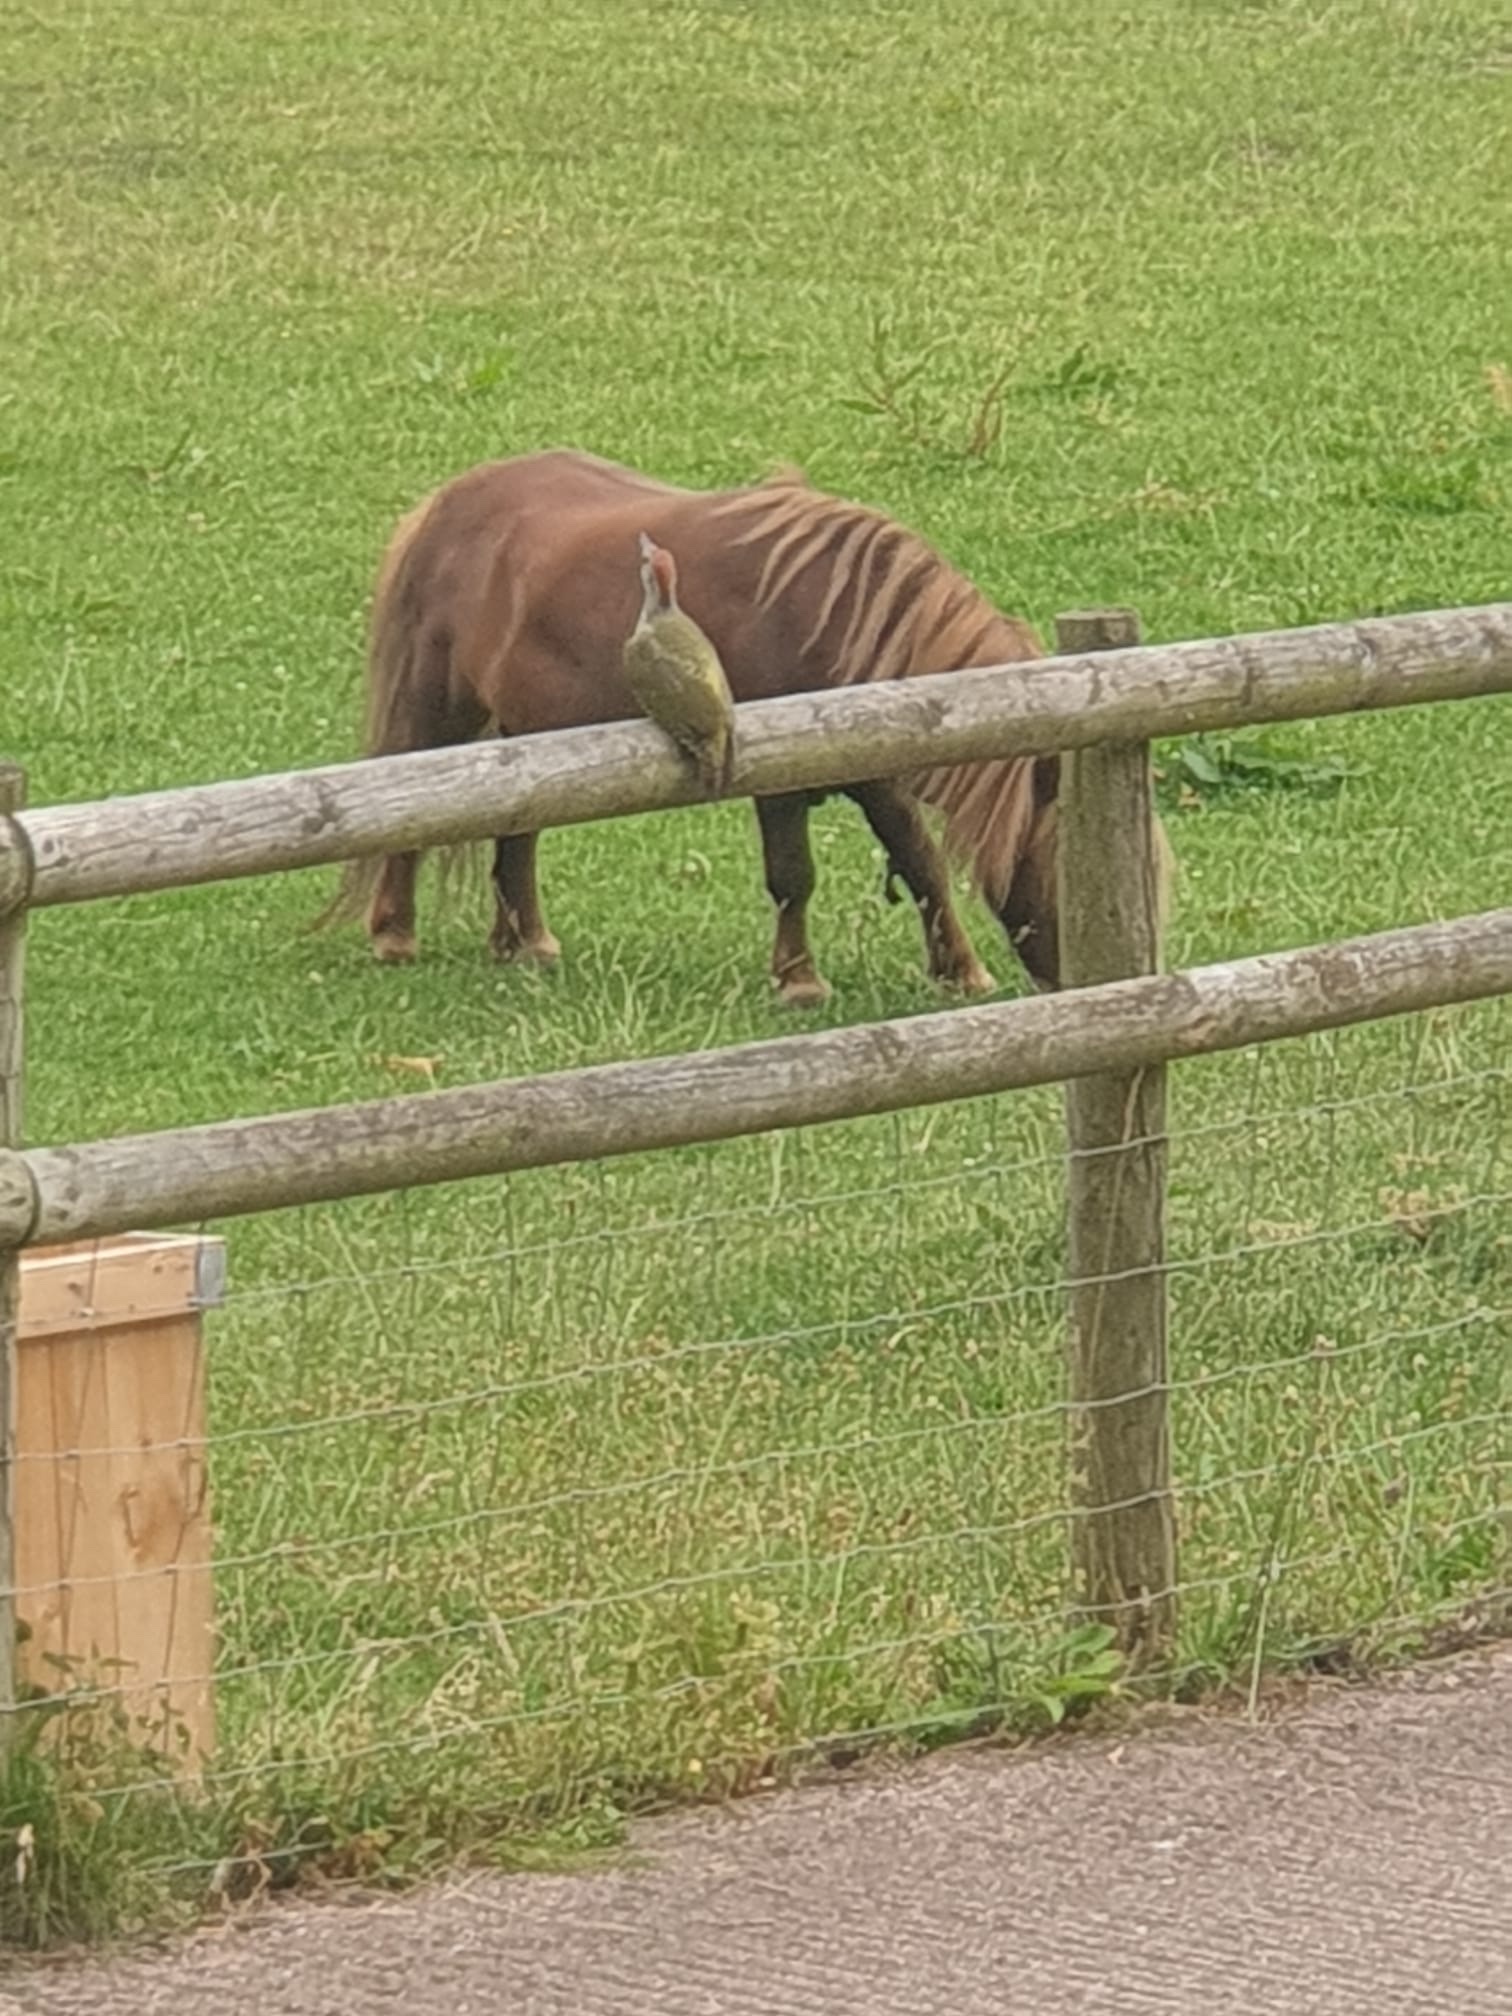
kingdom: Animalia
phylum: Chordata
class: Aves
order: Piciformes
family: Picidae
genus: Picus
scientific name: Picus viridis
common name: European green woodpecker
